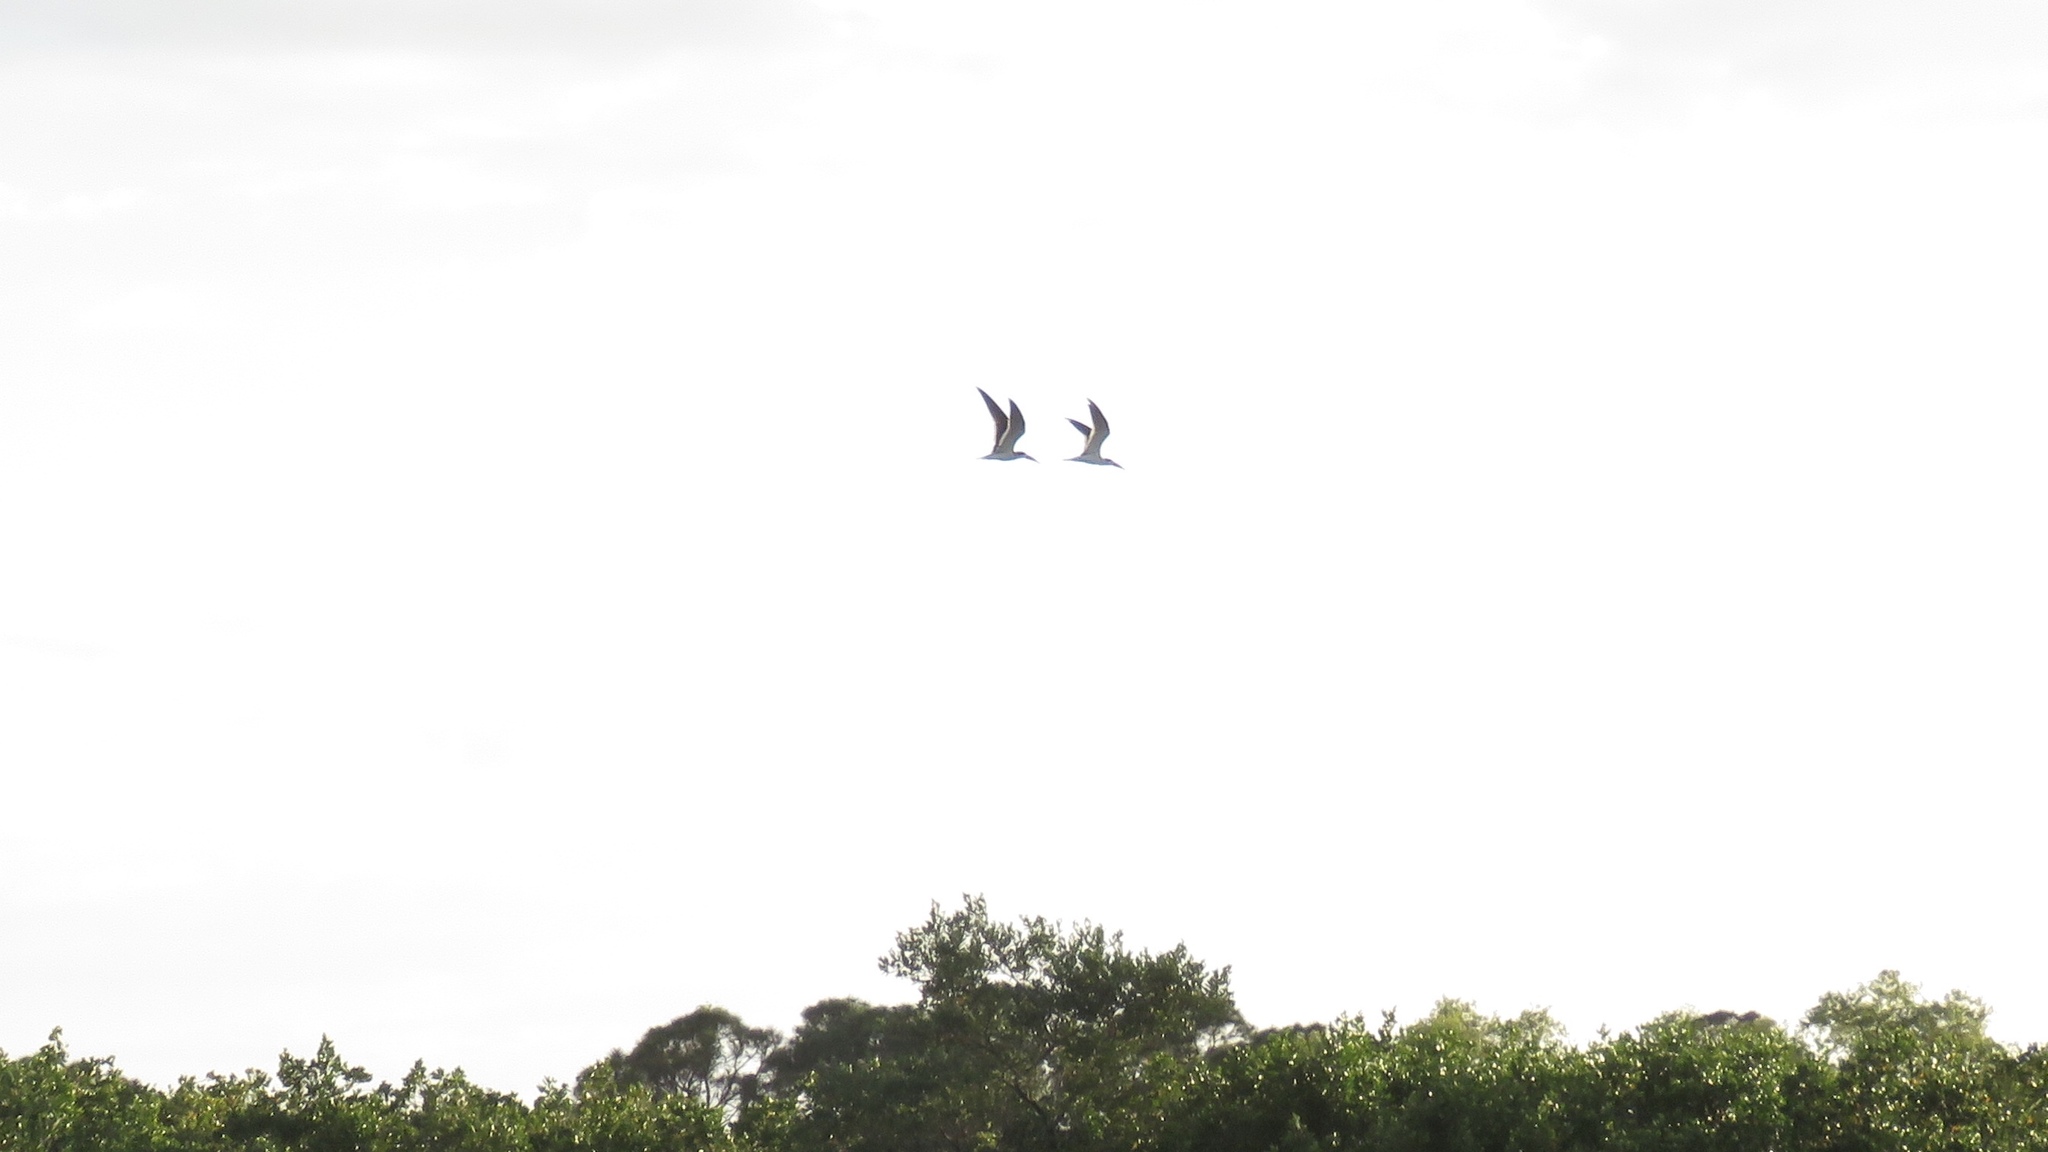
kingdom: Animalia
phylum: Chordata
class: Aves
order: Charadriiformes
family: Laridae
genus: Rynchops
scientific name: Rynchops niger
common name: Black skimmer
